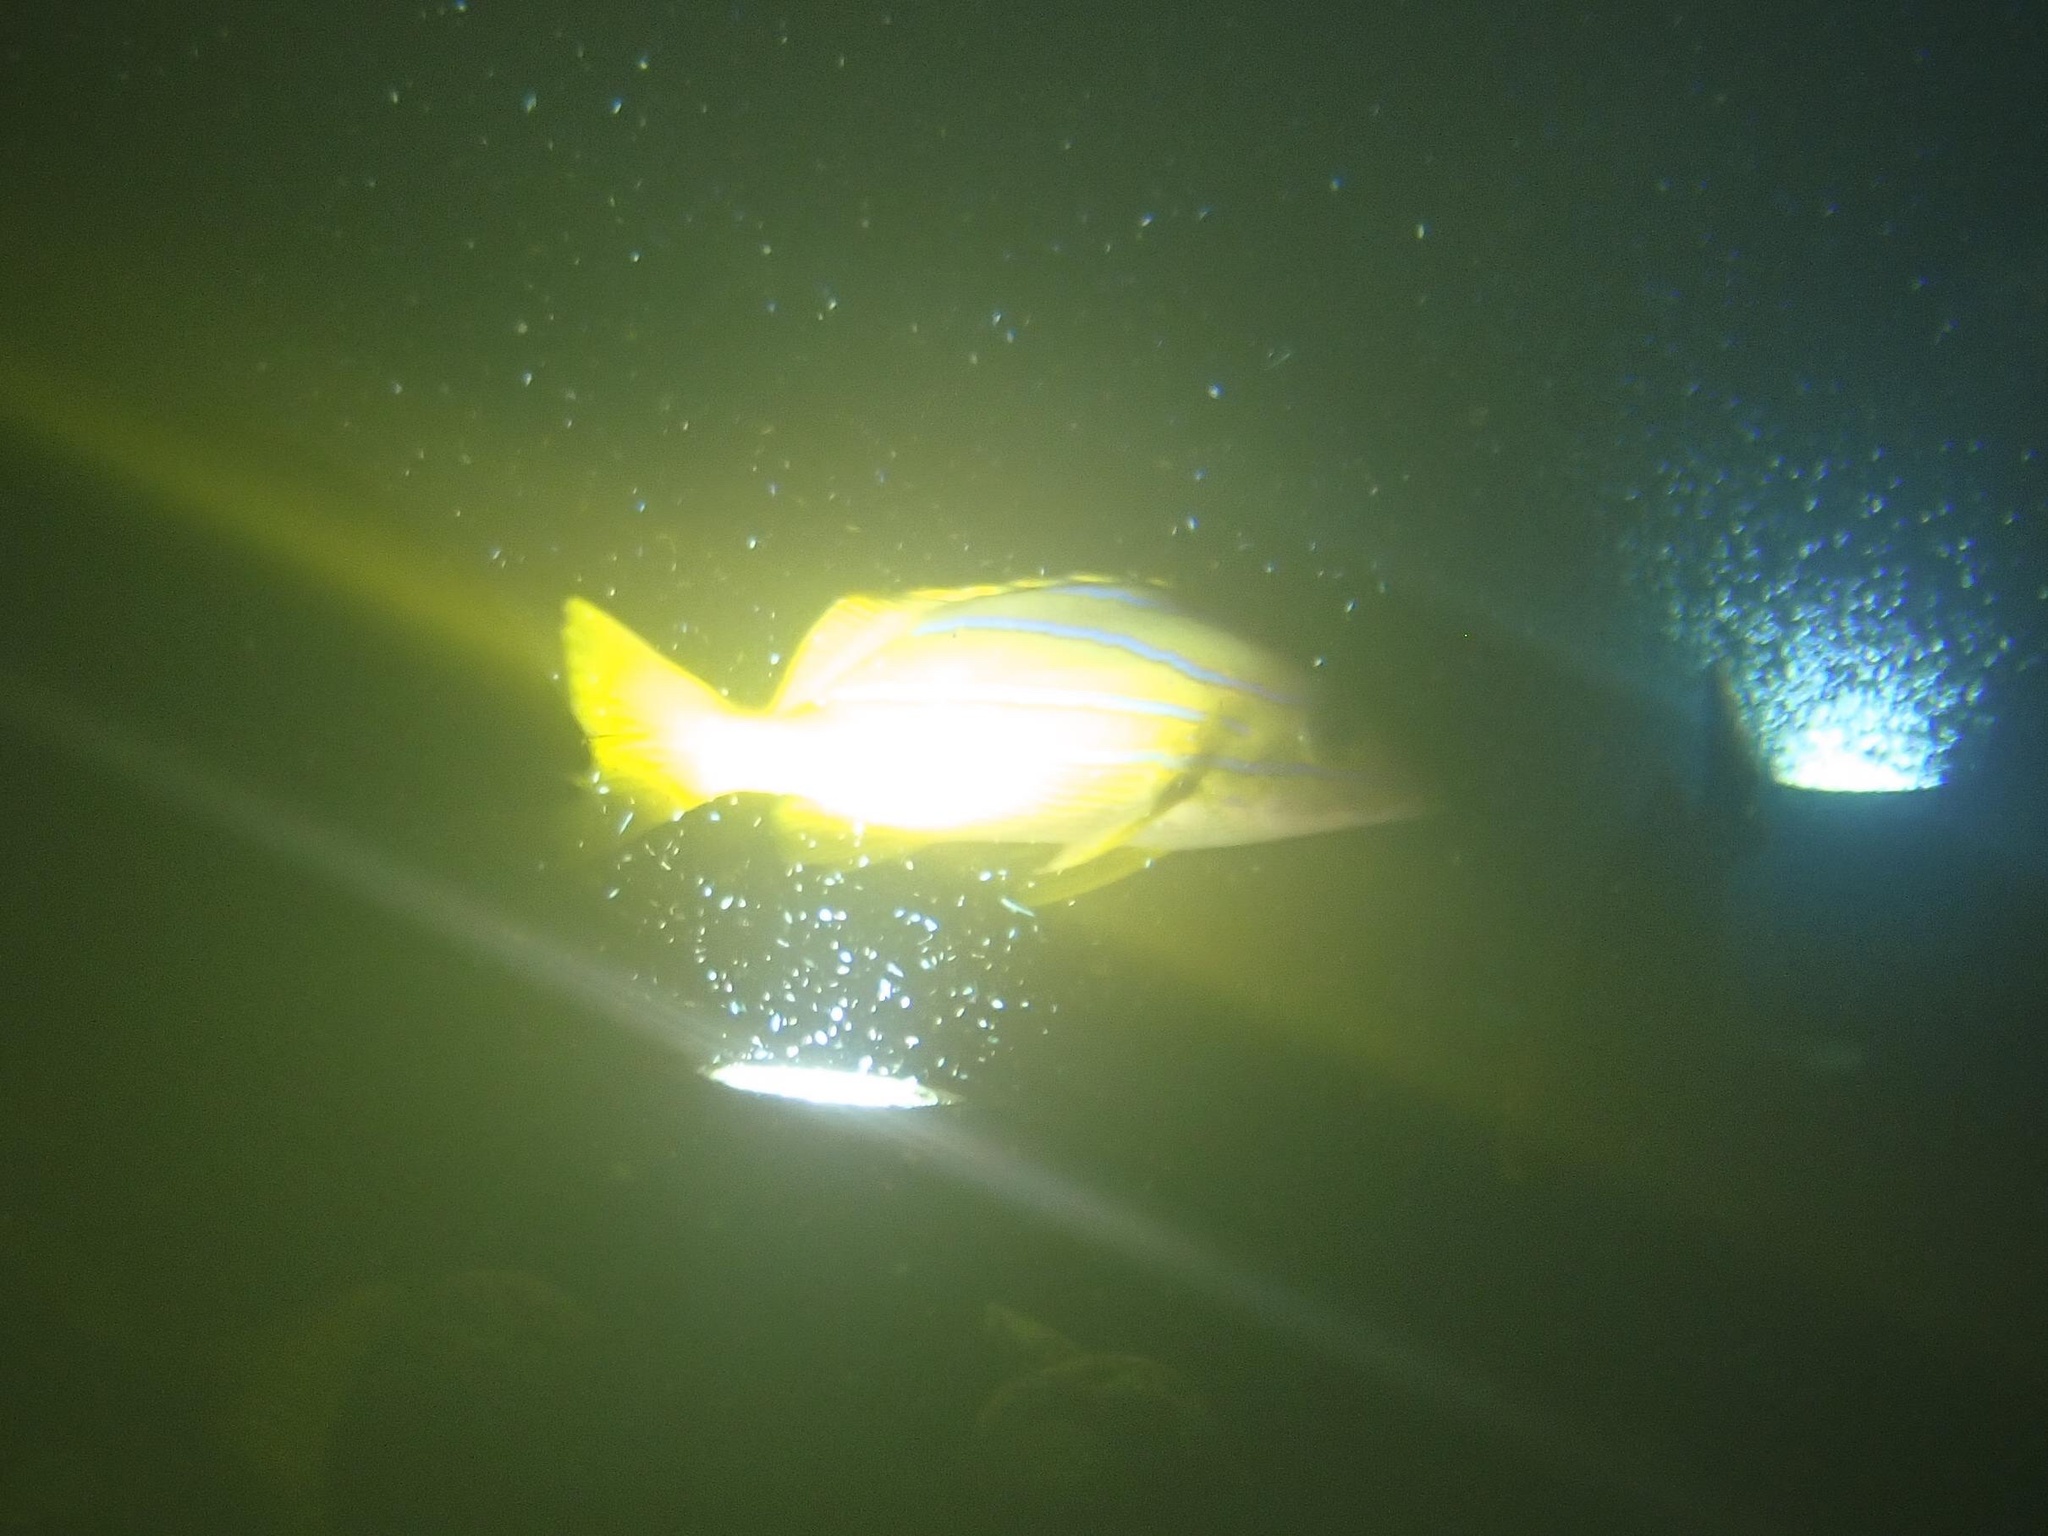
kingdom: Animalia
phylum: Chordata
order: Perciformes
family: Lutjanidae
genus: Lutjanus
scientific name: Lutjanus kasmira
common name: Common bluestripe snapper
